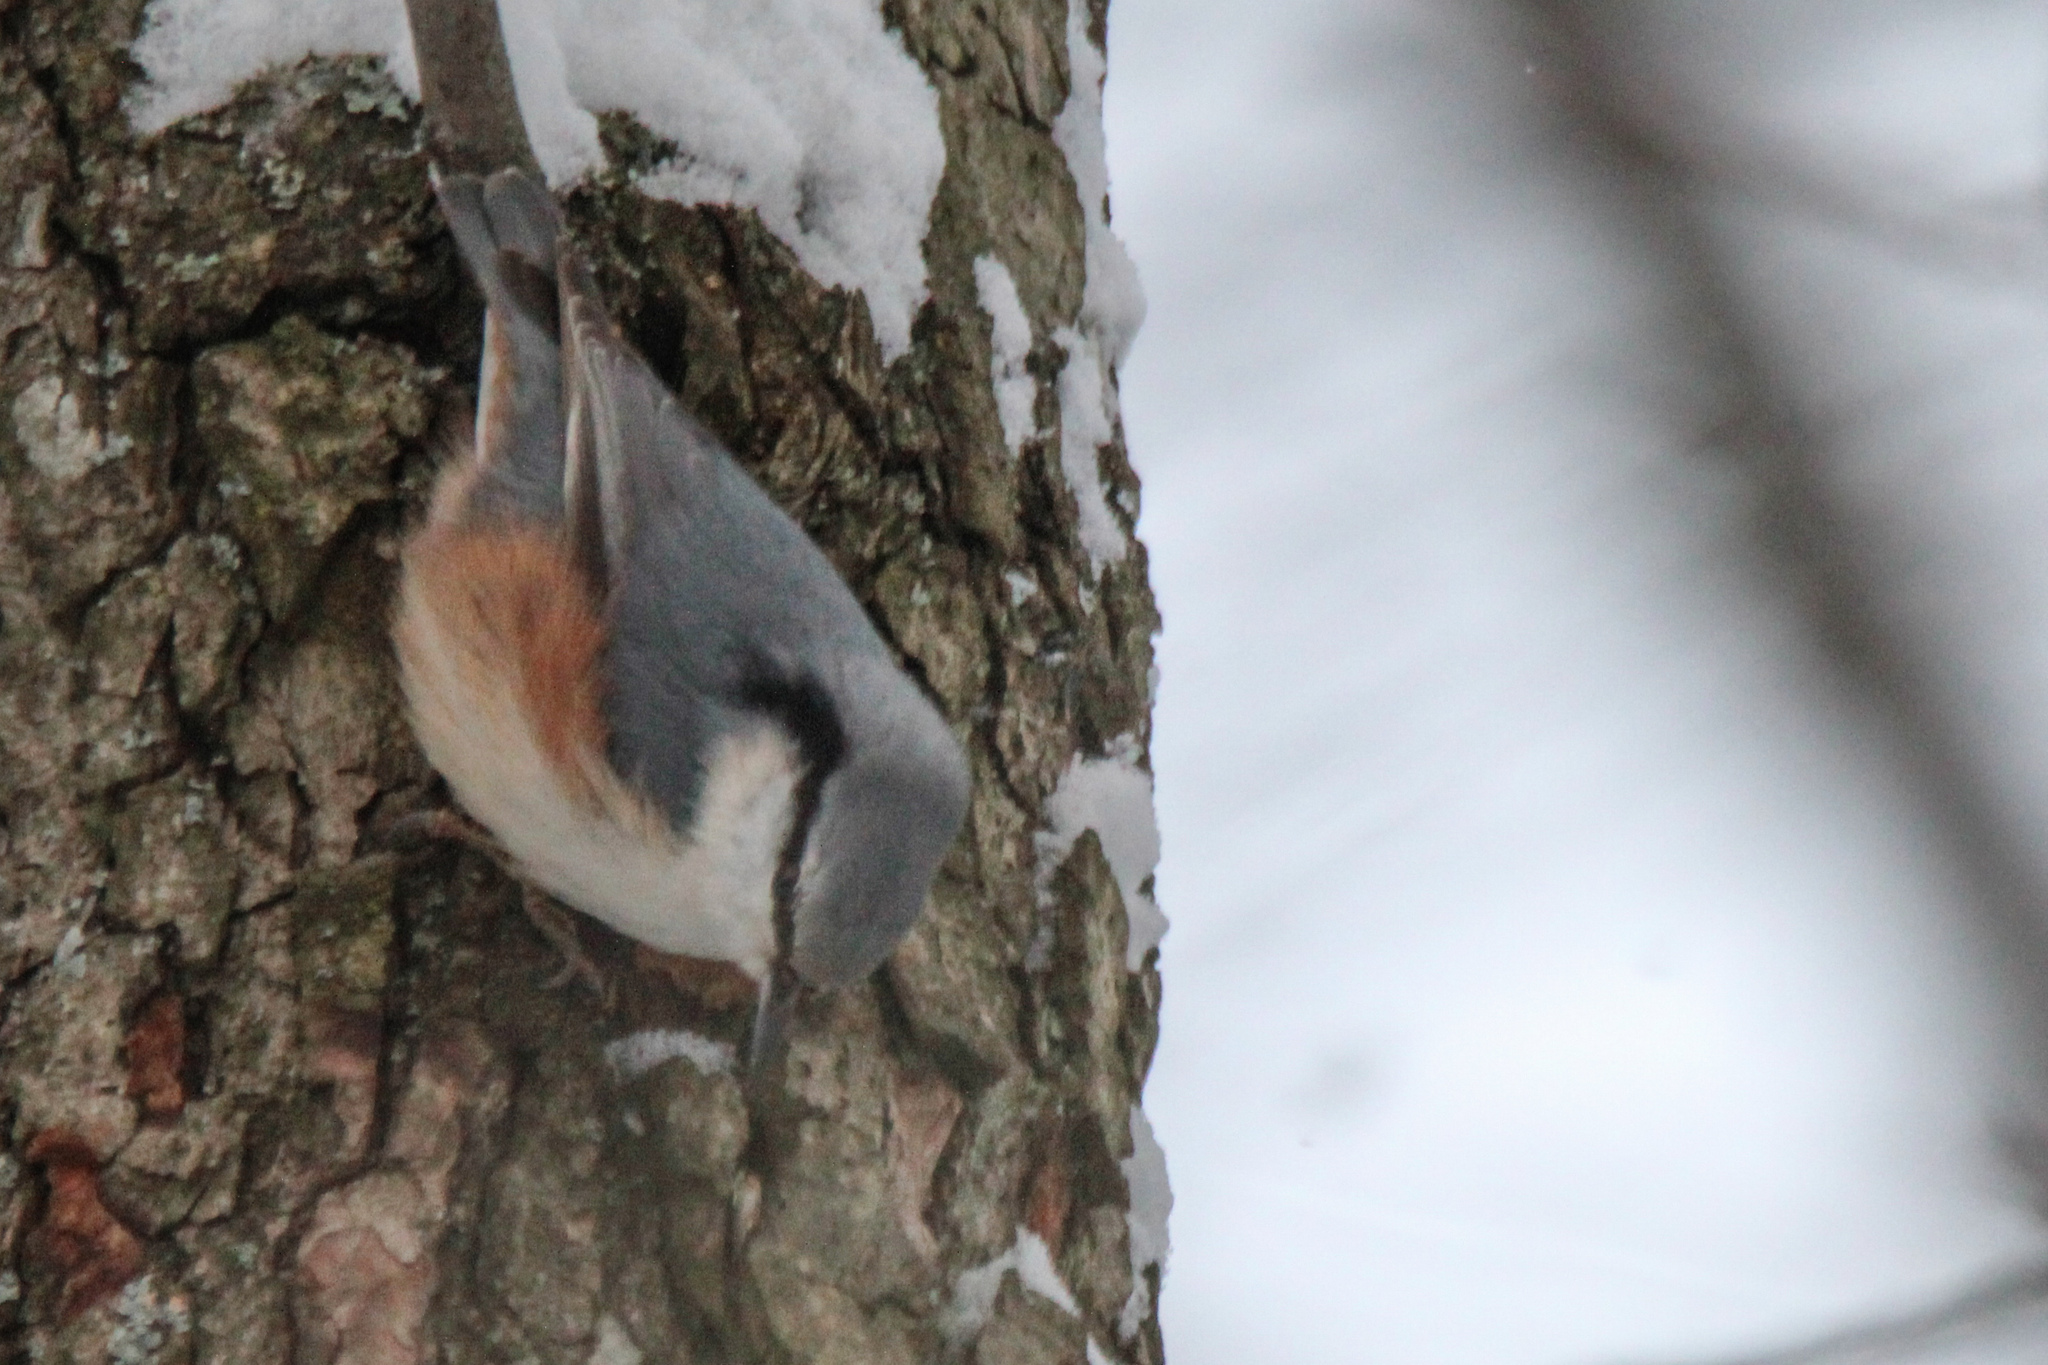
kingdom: Animalia
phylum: Chordata
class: Aves
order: Passeriformes
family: Sittidae
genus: Sitta
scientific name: Sitta europaea
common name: Eurasian nuthatch
